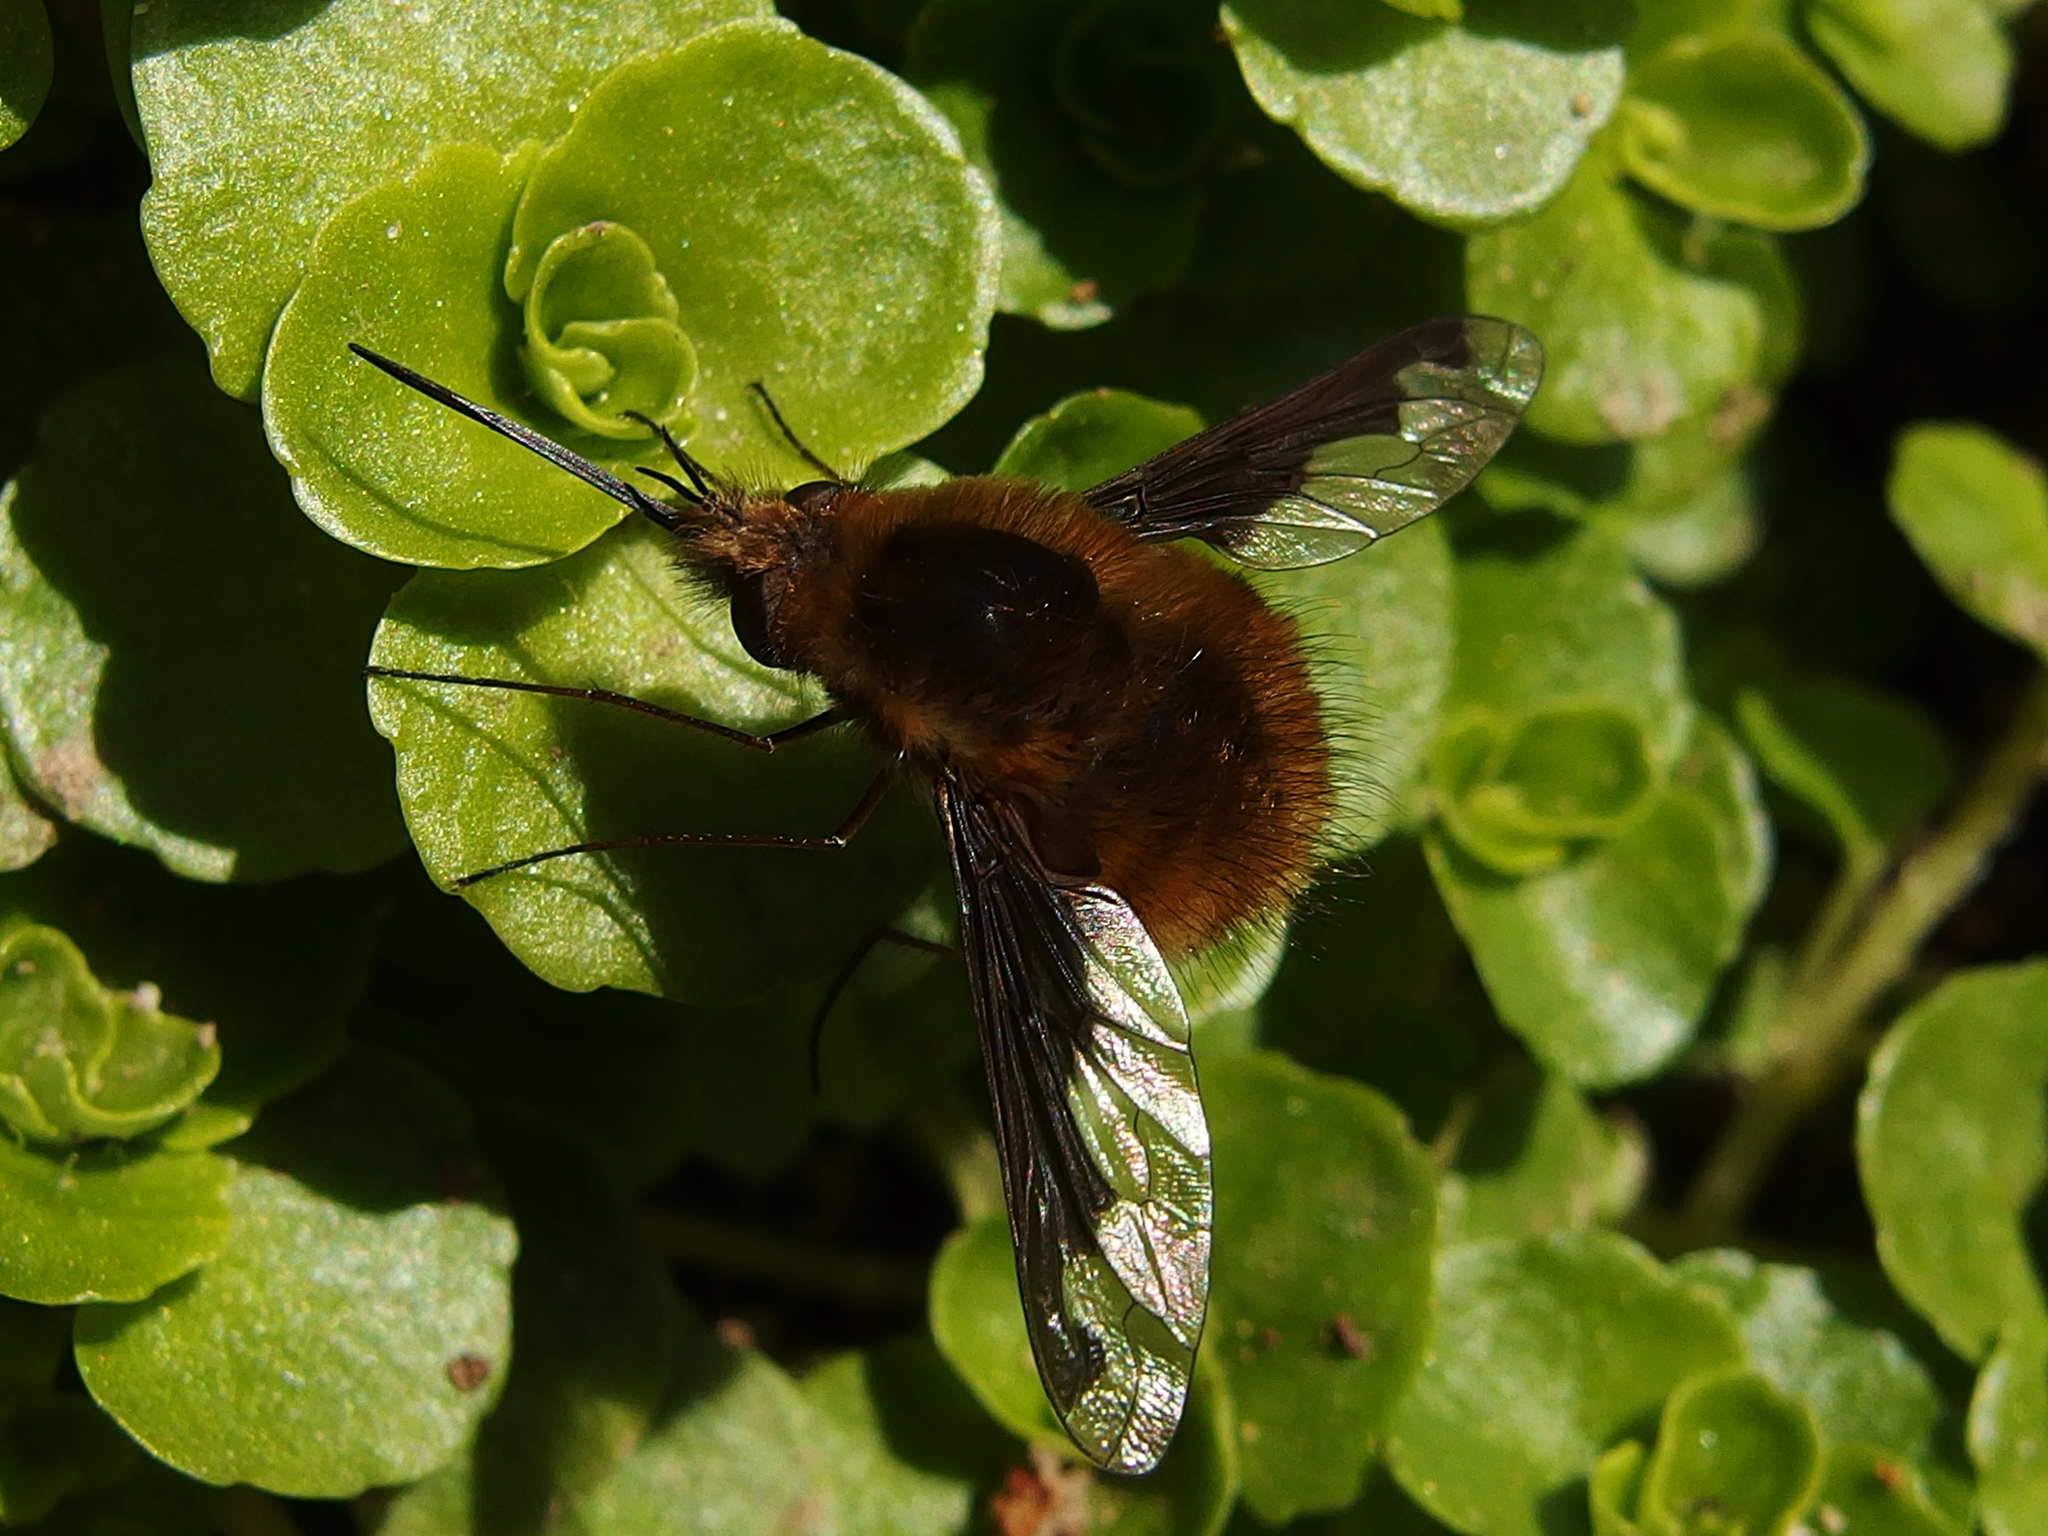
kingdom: Animalia
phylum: Arthropoda
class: Insecta
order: Diptera
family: Bombyliidae
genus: Bombylius
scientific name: Bombylius major
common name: Bee fly
